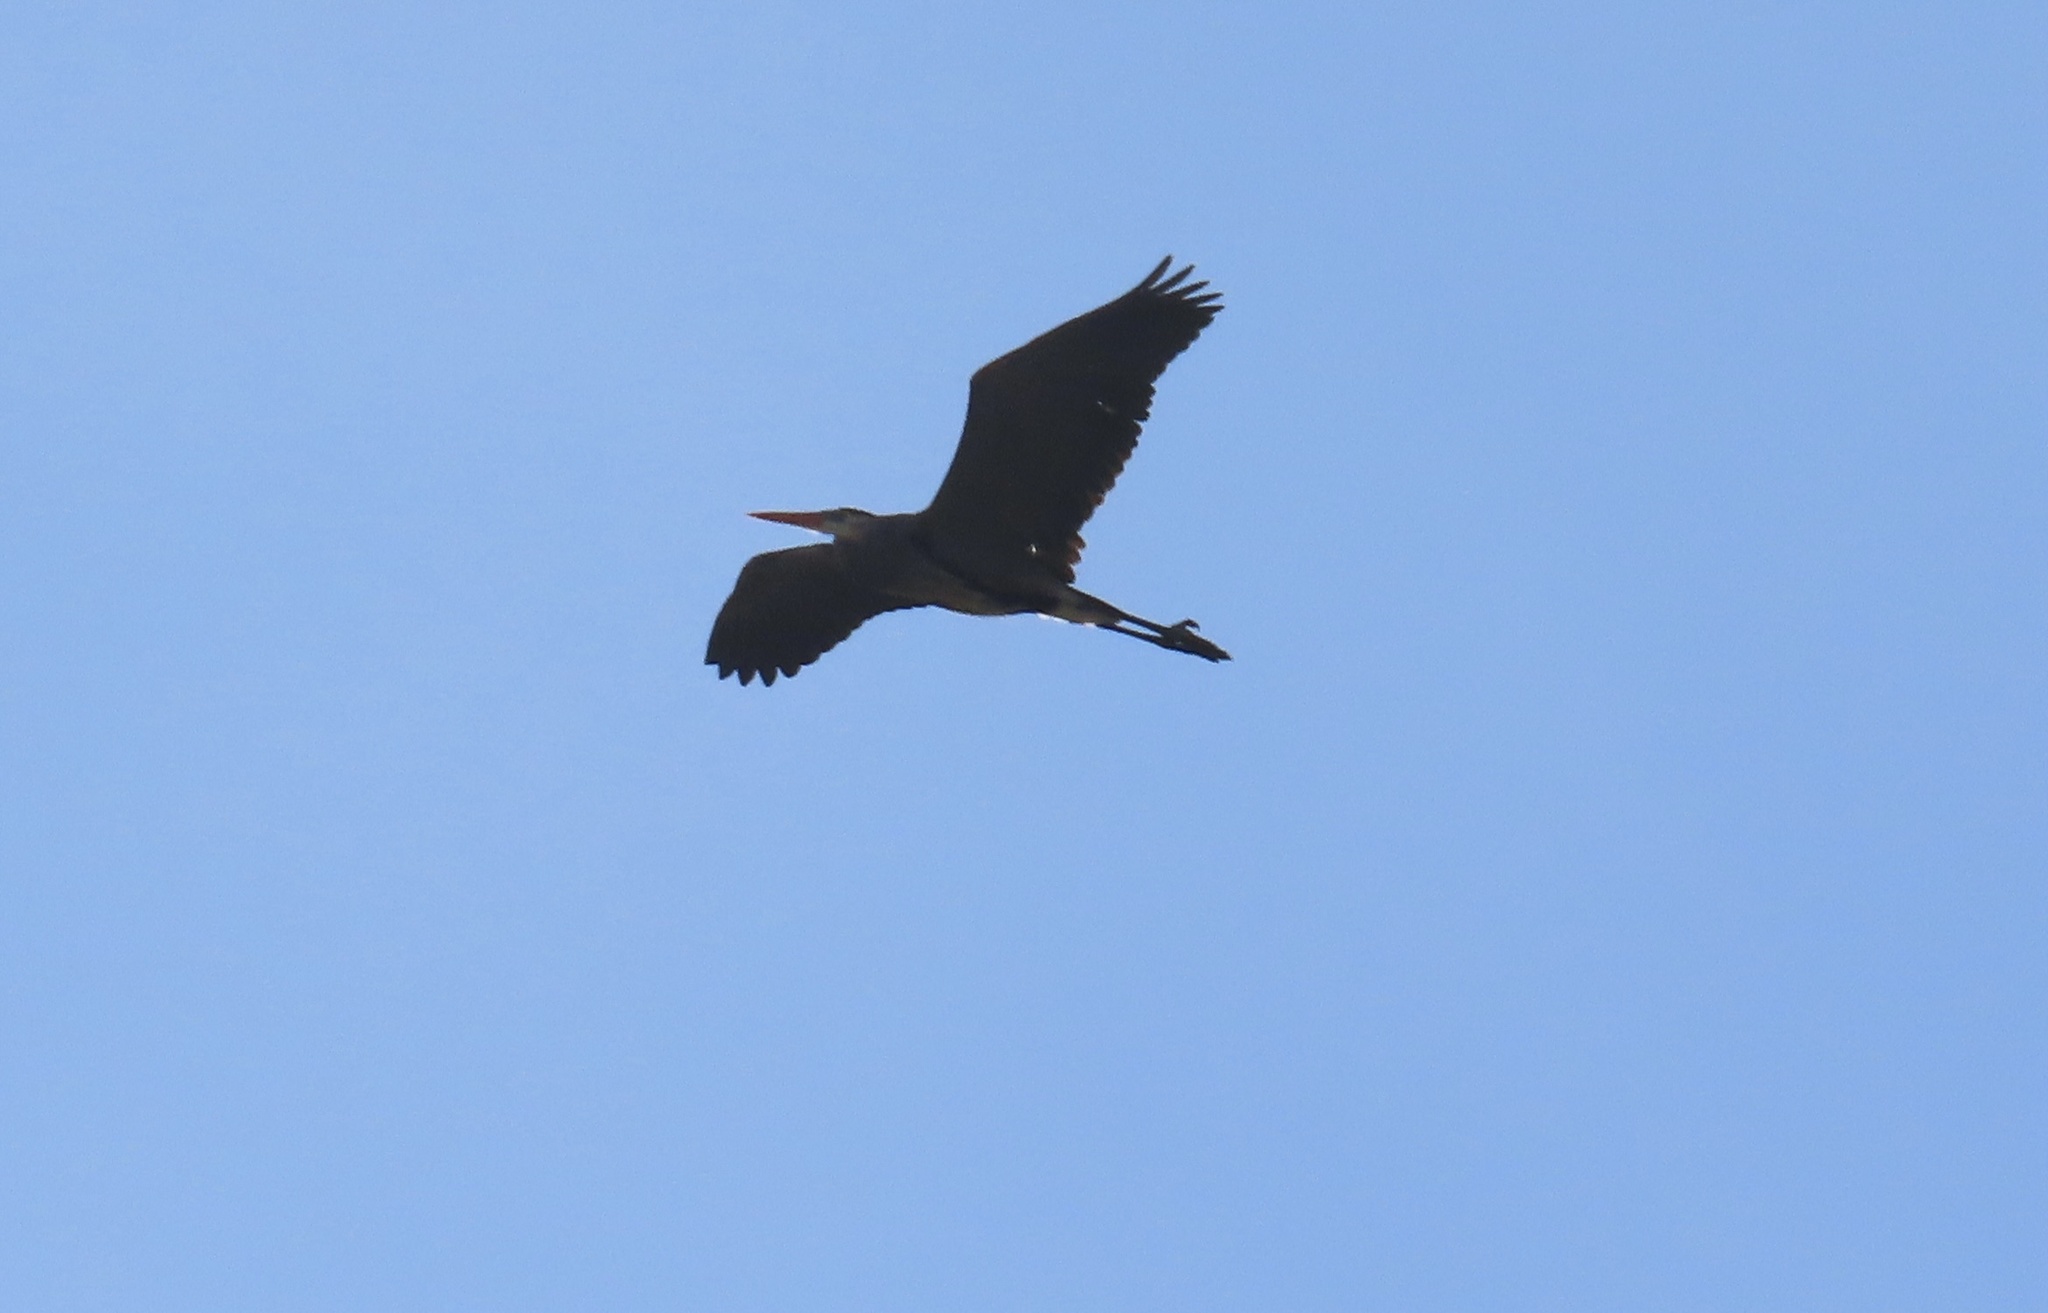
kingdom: Animalia
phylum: Chordata
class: Aves
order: Pelecaniformes
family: Ardeidae
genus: Ardea
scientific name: Ardea herodias
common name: Great blue heron
